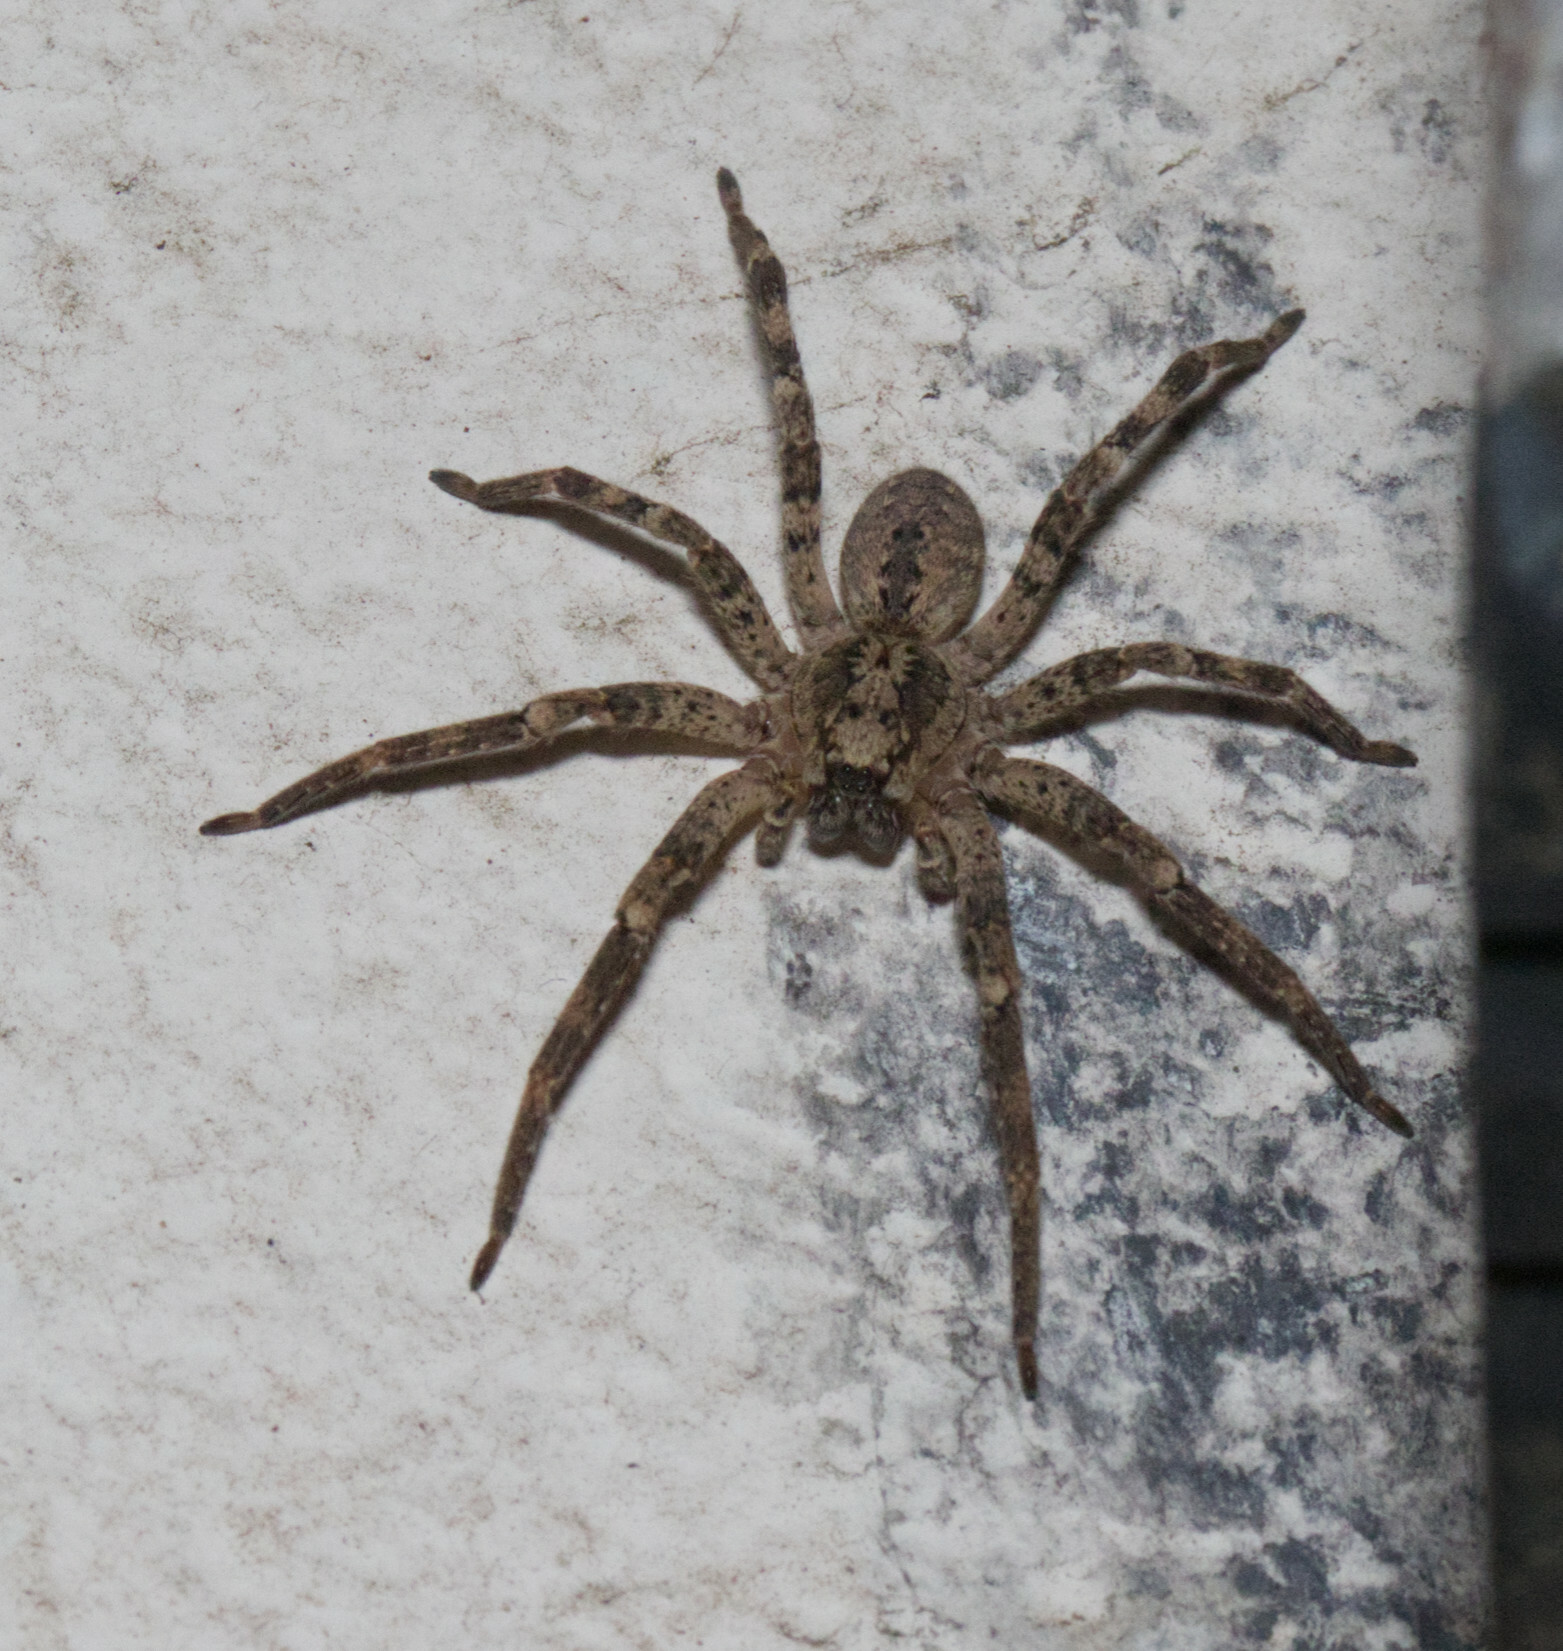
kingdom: Animalia
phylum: Arthropoda
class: Arachnida
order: Araneae
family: Zoropsidae
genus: Zoropsis
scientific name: Zoropsis spinimana
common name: Zoropsid spider
